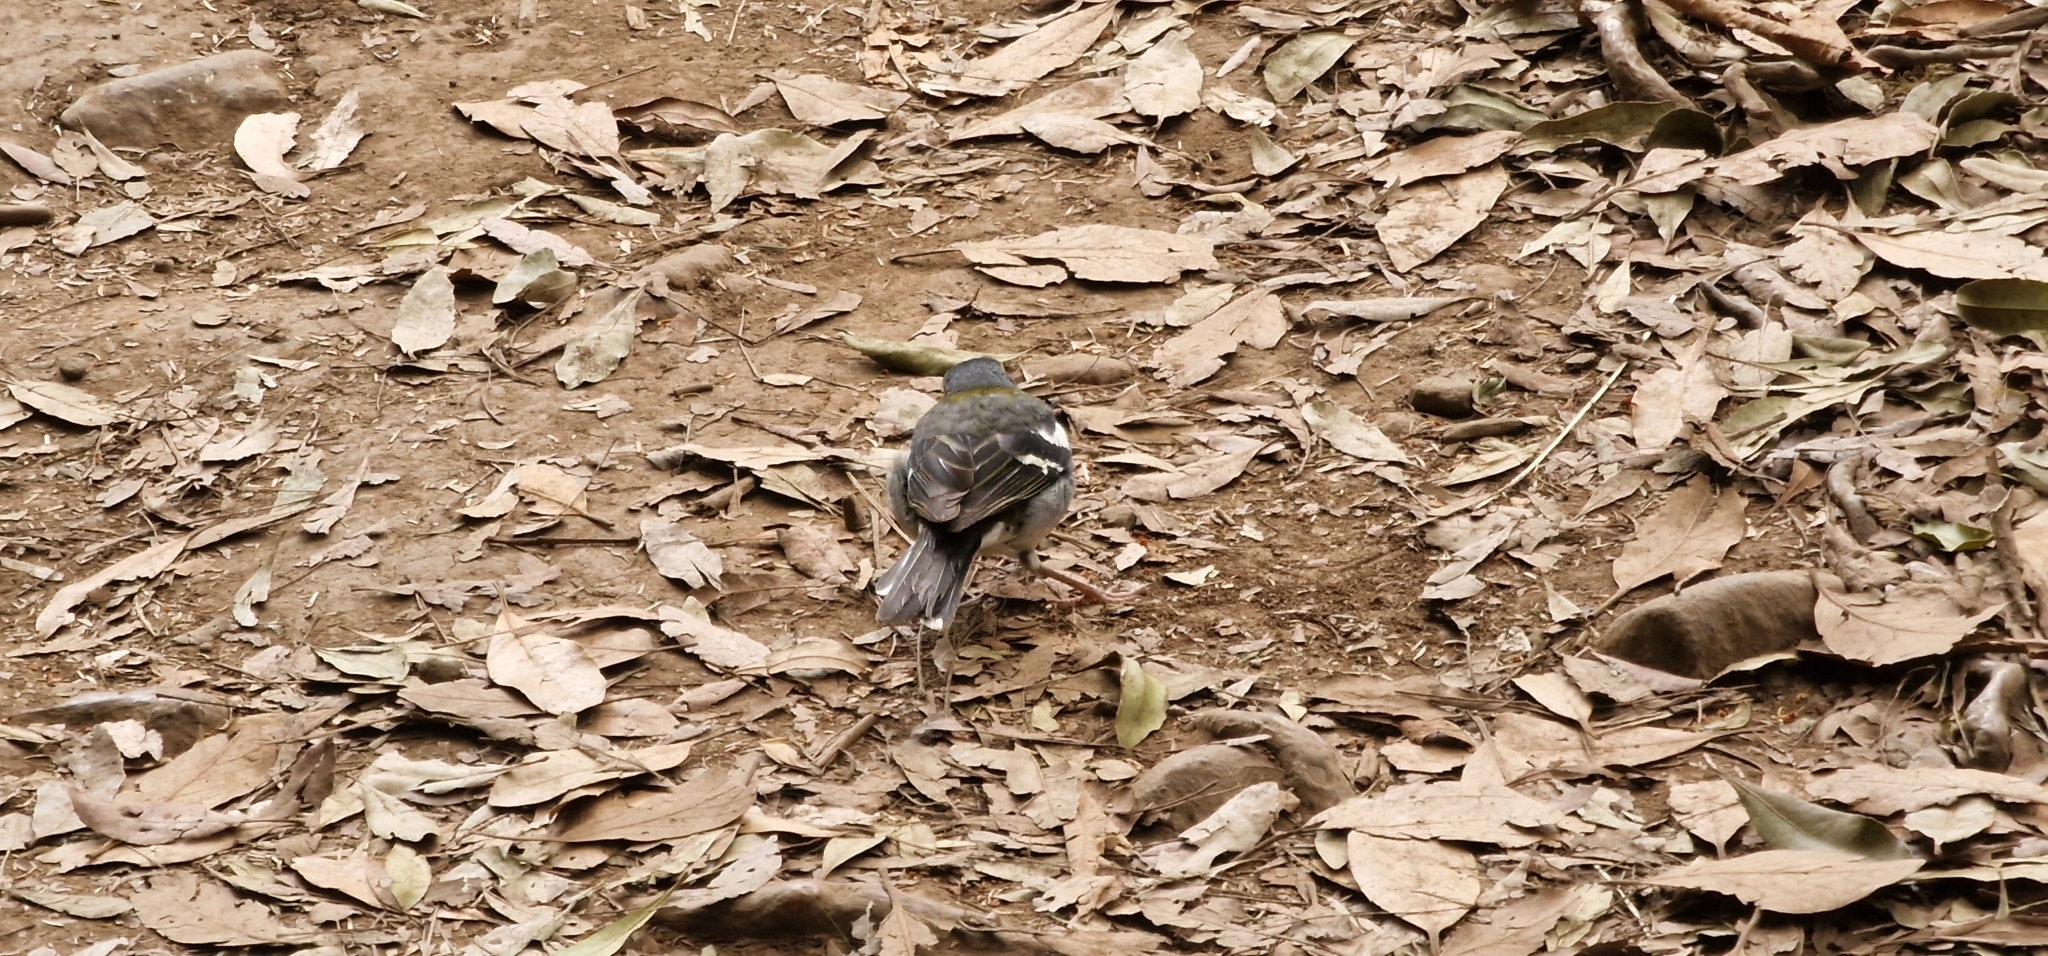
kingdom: Animalia
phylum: Chordata
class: Aves
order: Passeriformes
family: Fringillidae
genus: Fringilla
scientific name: Fringilla maderensis
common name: Madeira chaffinch
